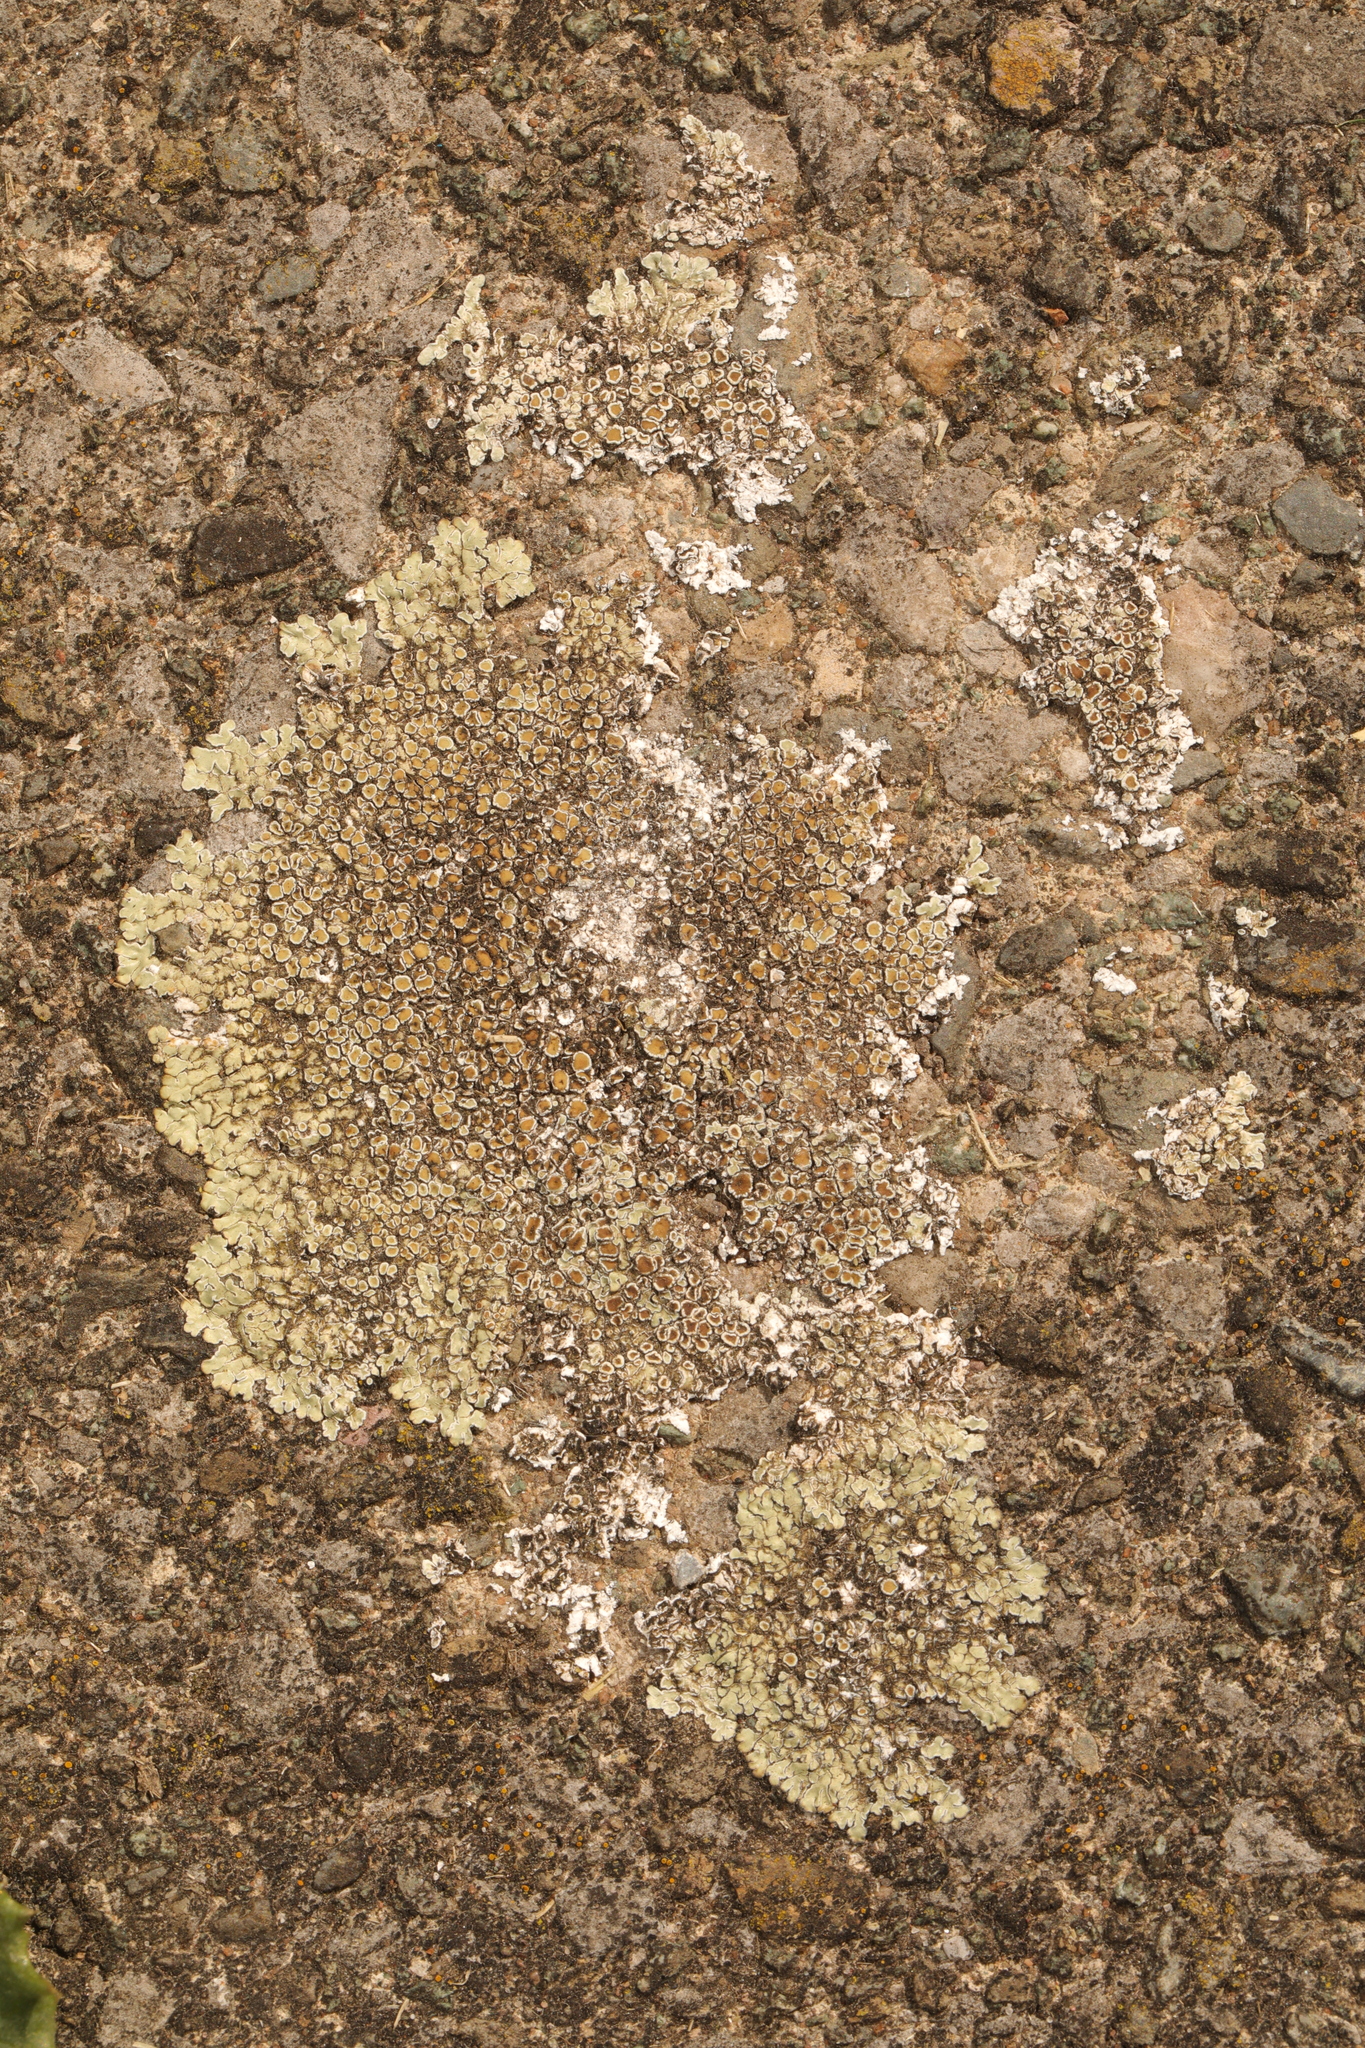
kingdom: Fungi
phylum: Ascomycota
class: Lecanoromycetes
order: Lecanorales
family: Lecanoraceae
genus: Protoparmeliopsis
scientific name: Protoparmeliopsis muralis
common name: Stonewall rim lichen
